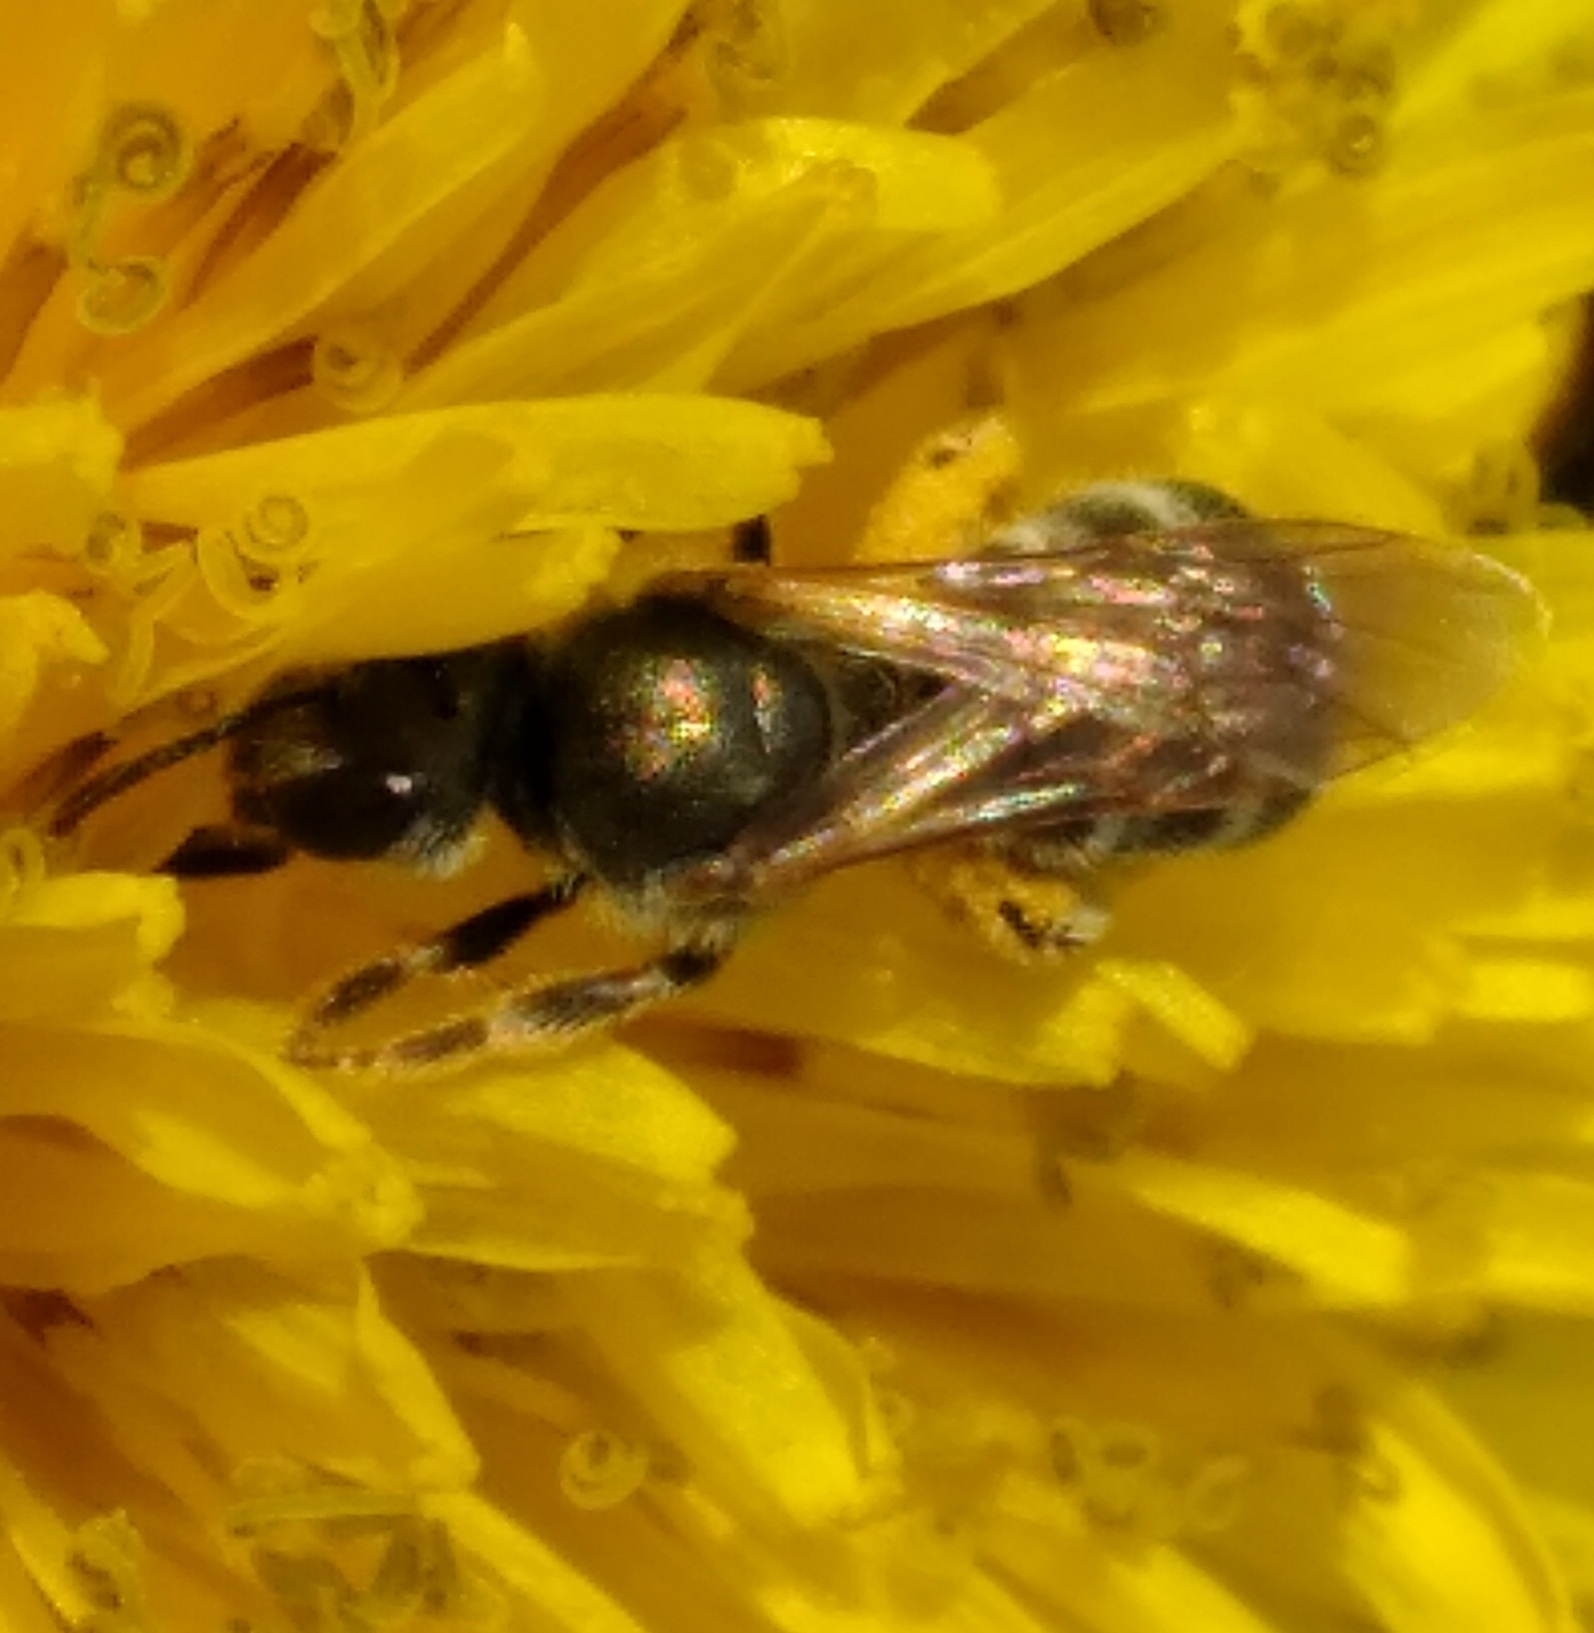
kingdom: Animalia
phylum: Arthropoda
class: Insecta
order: Hymenoptera
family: Halictidae
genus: Halictus
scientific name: Halictus confusus
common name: Southern bronze furrow bee
